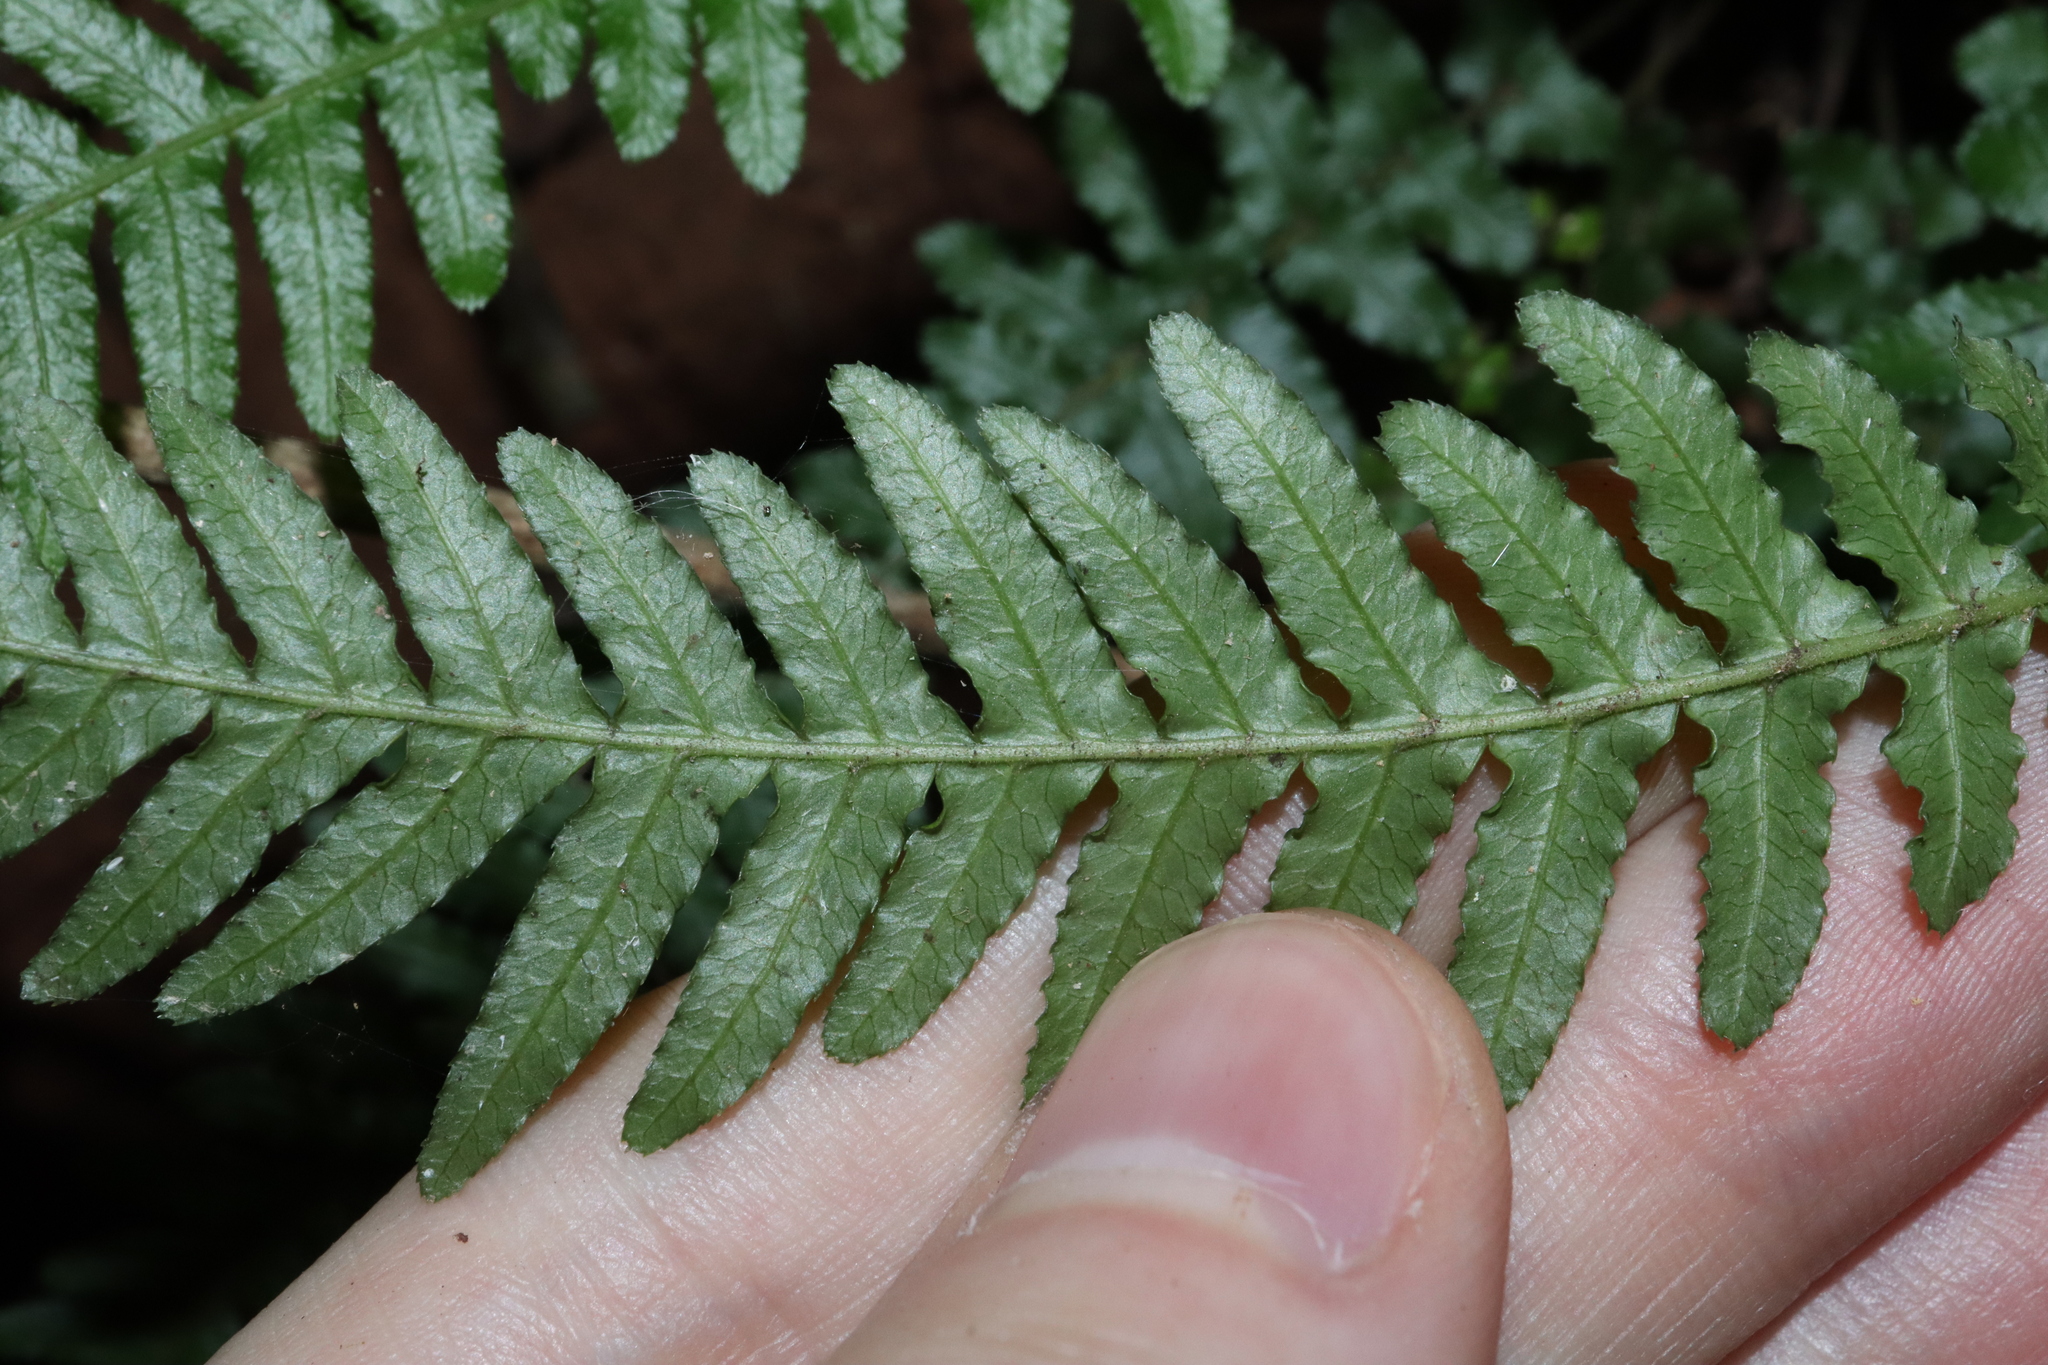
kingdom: Plantae
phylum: Tracheophyta
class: Polypodiopsida
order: Polypodiales
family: Blechnaceae
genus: Doodia
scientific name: Doodia media
